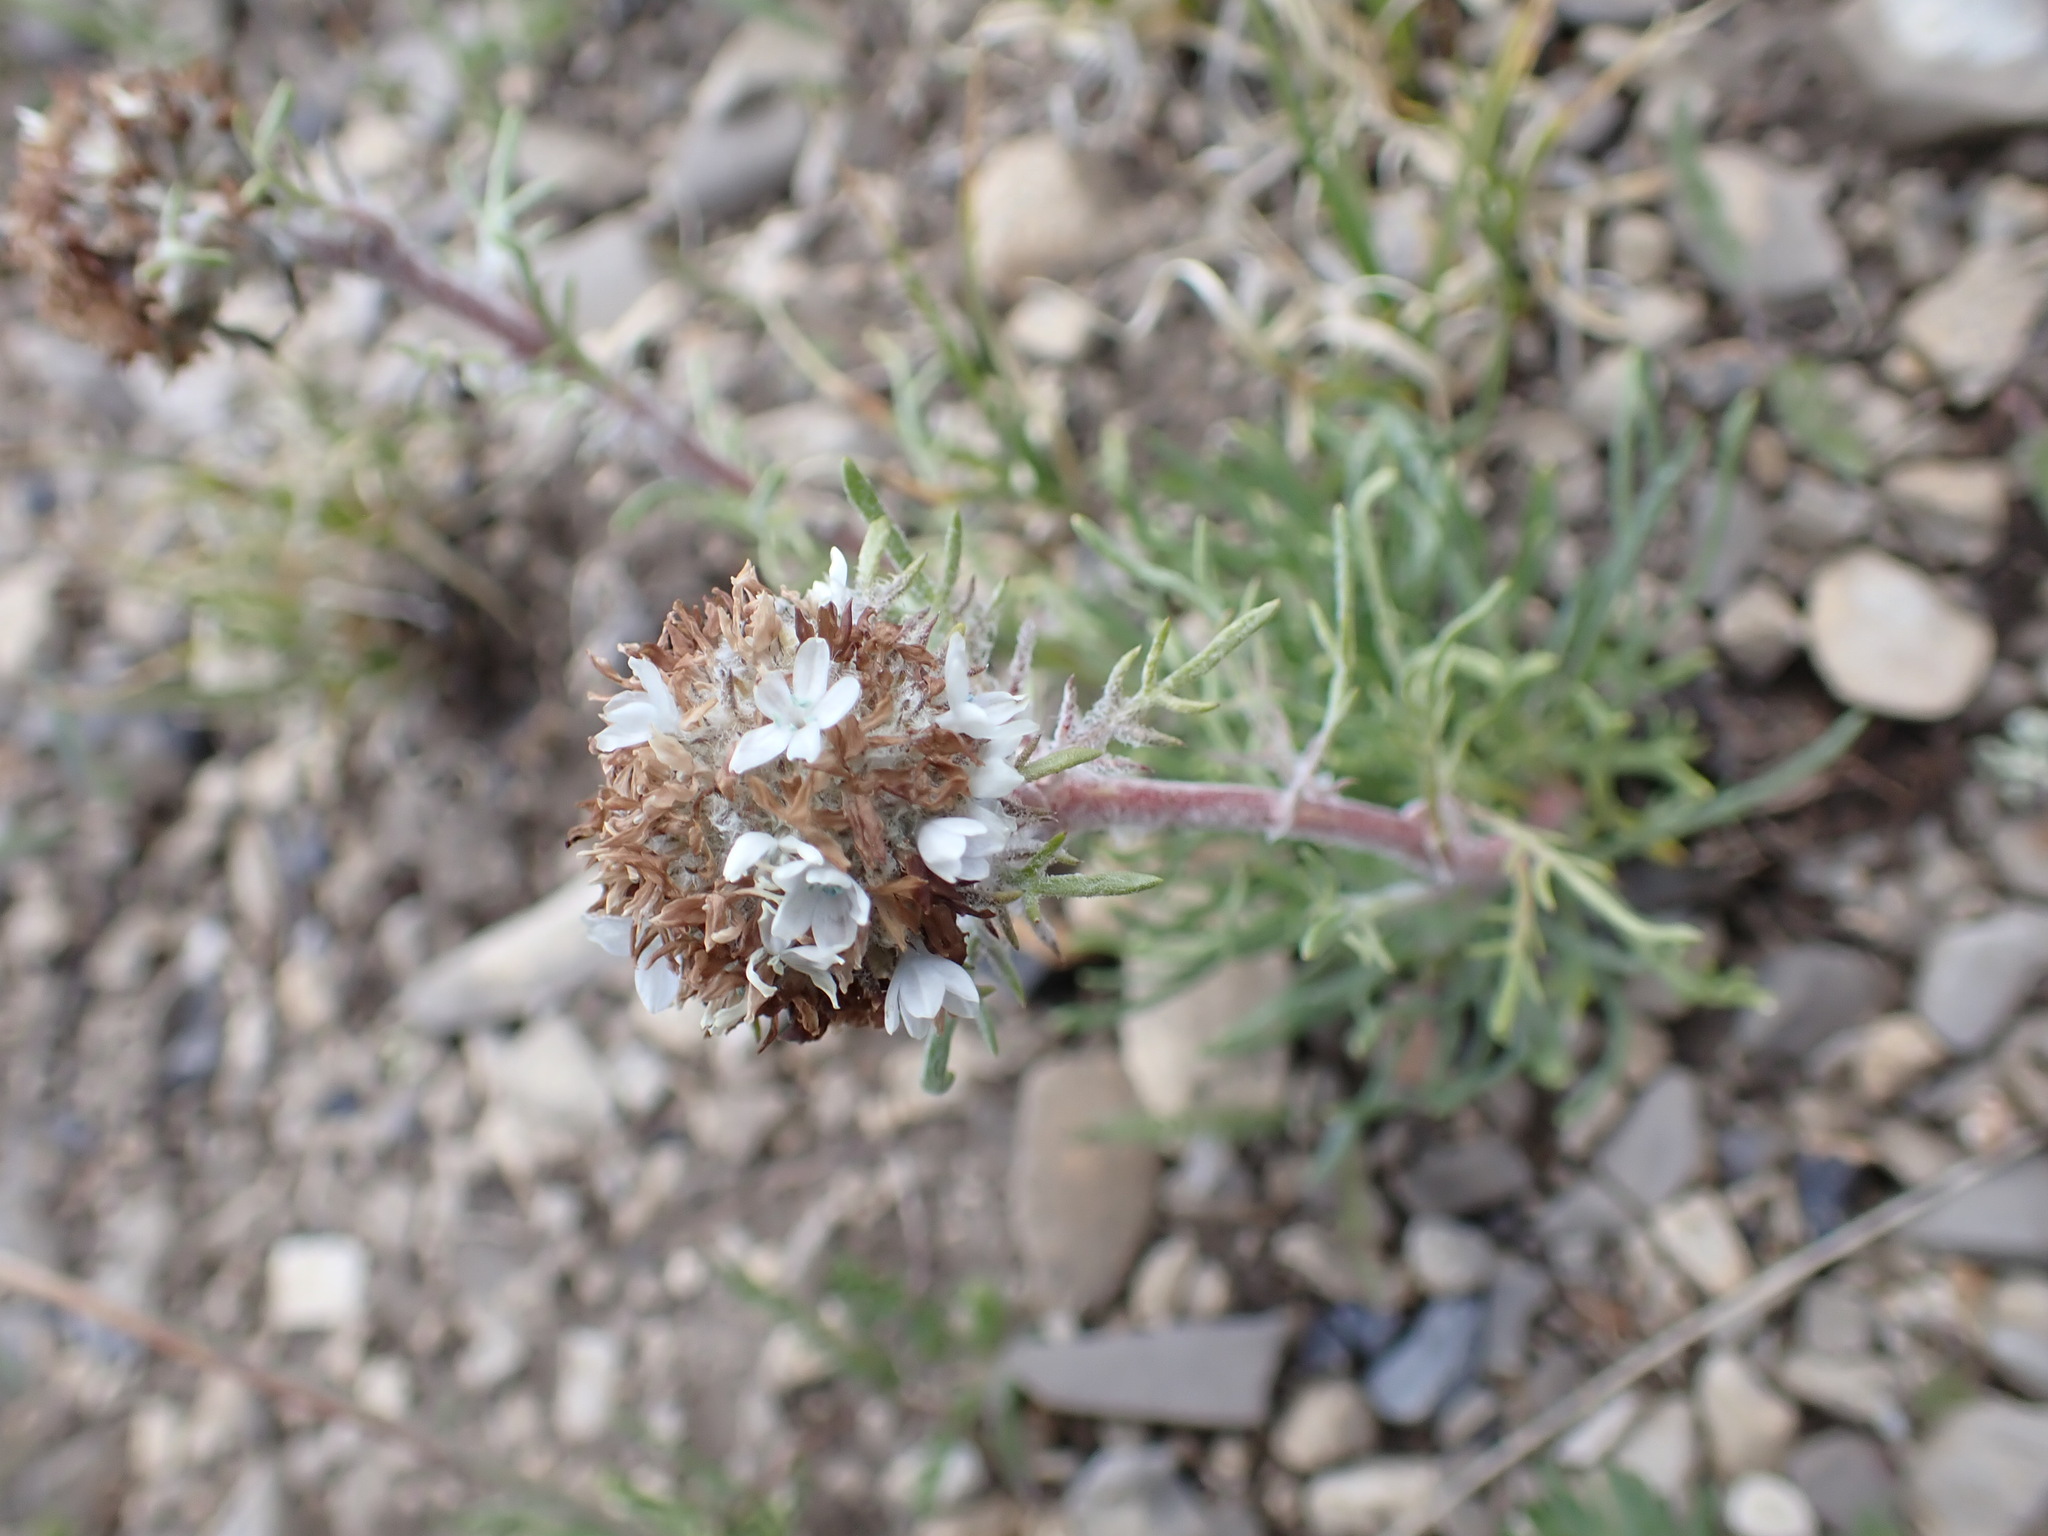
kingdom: Plantae
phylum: Tracheophyta
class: Magnoliopsida
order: Ericales
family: Polemoniaceae
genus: Ipomopsis
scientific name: Ipomopsis globularis
